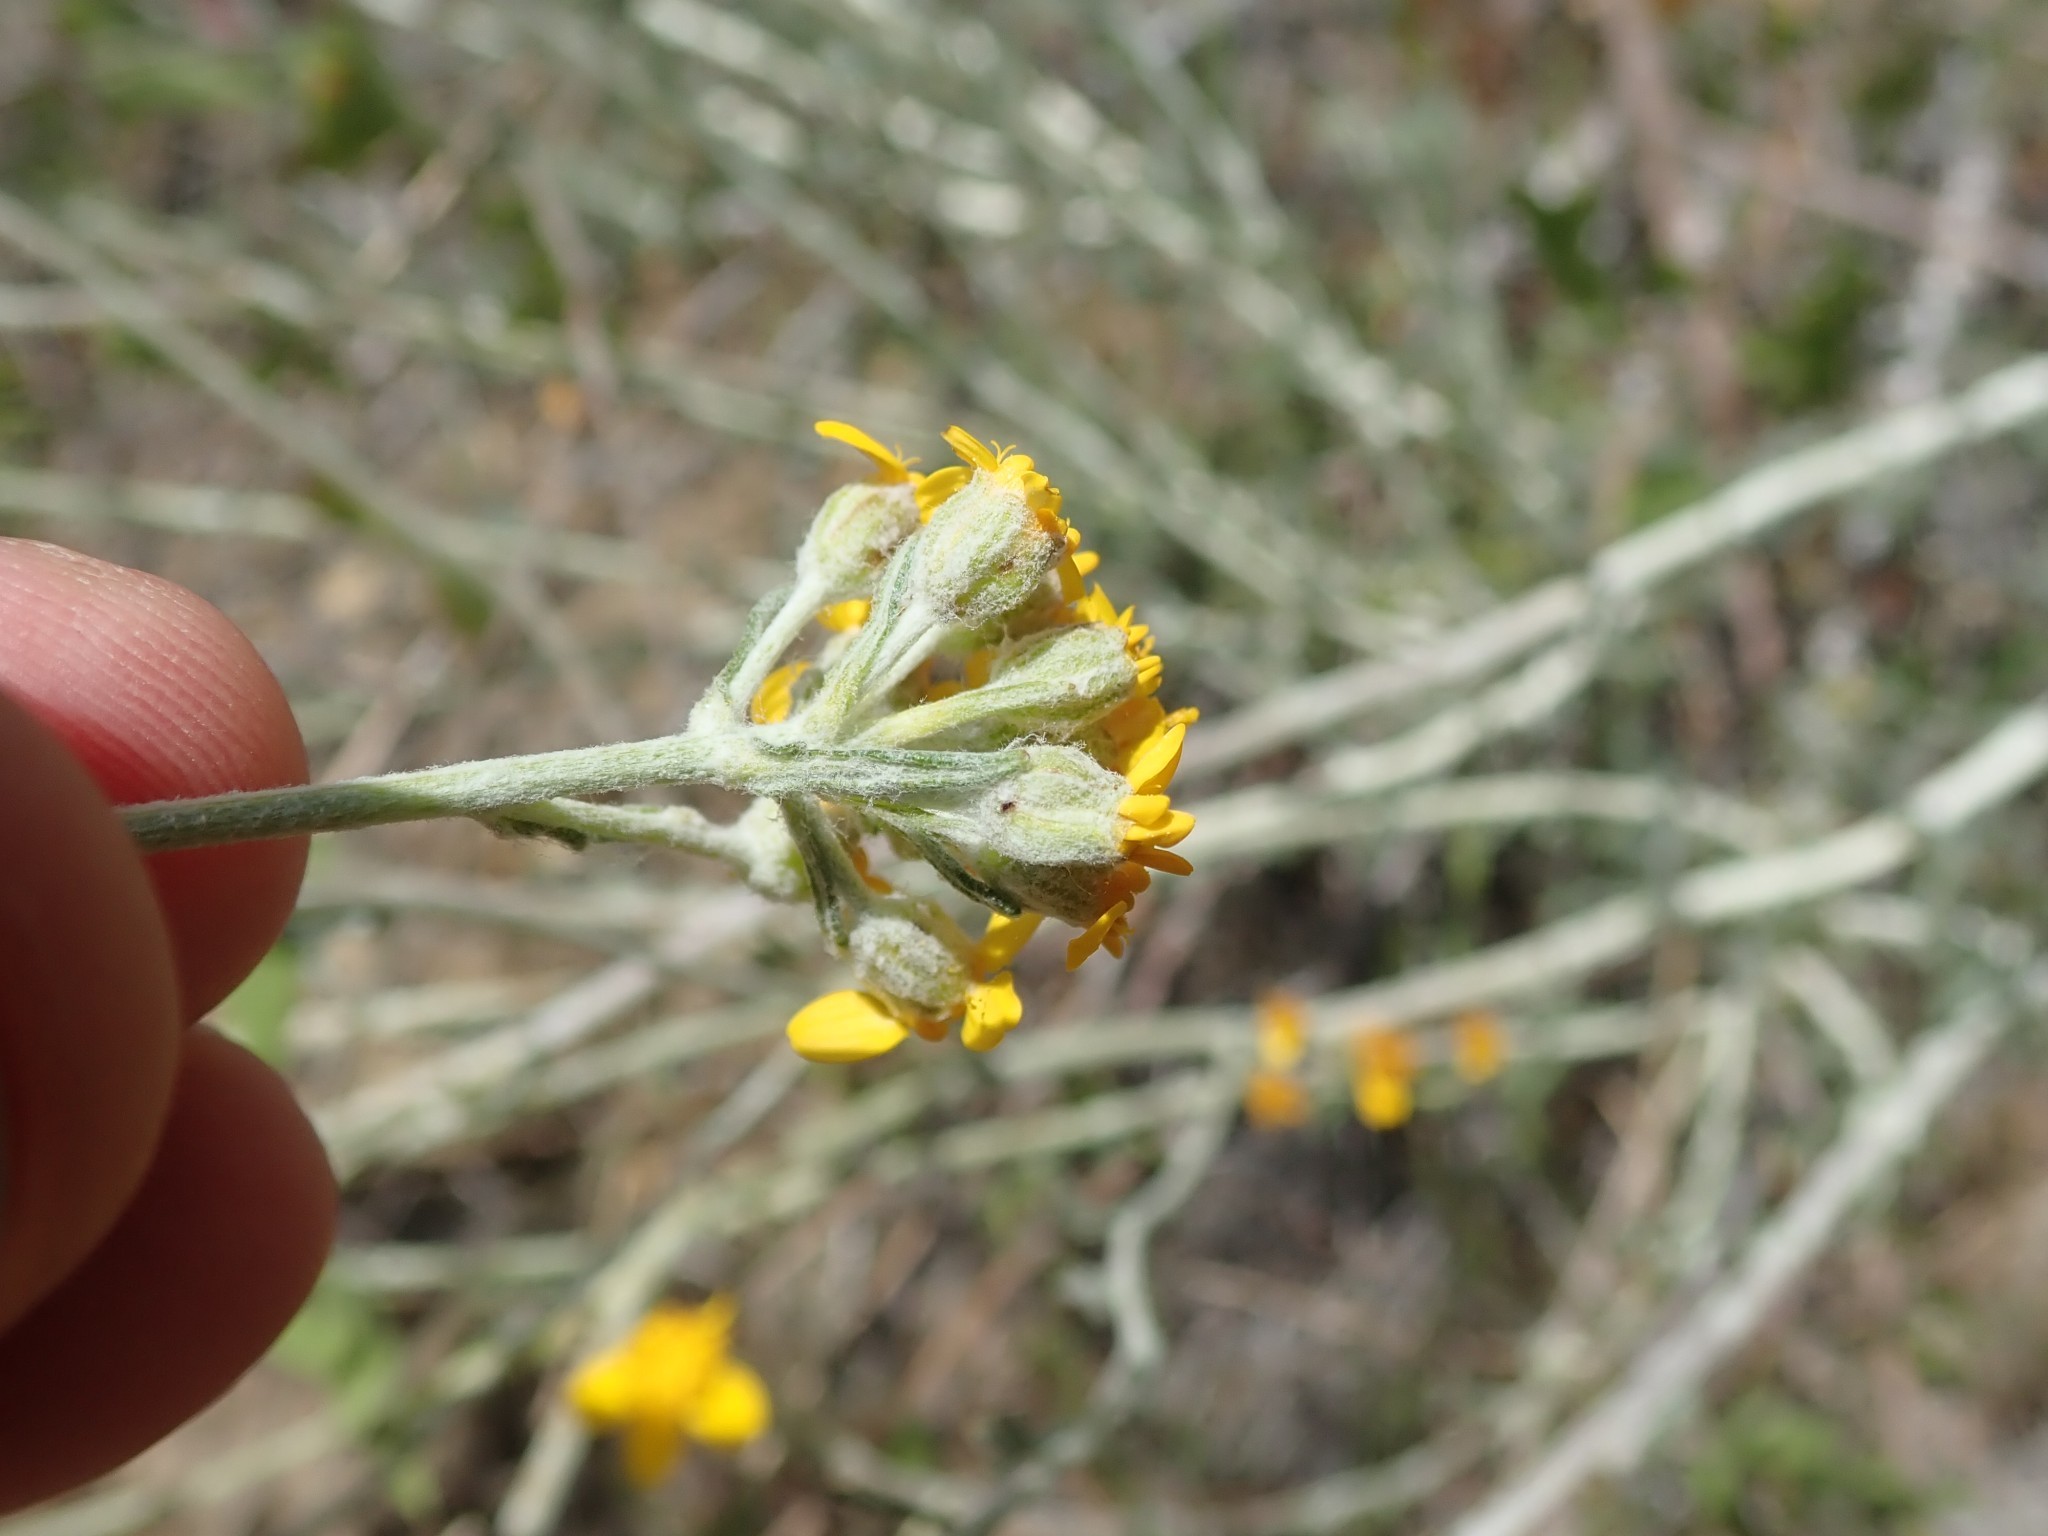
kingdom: Plantae
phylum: Tracheophyta
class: Magnoliopsida
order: Asterales
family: Asteraceae
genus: Eriophyllum
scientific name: Eriophyllum confertiflorum
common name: Golden-yarrow
